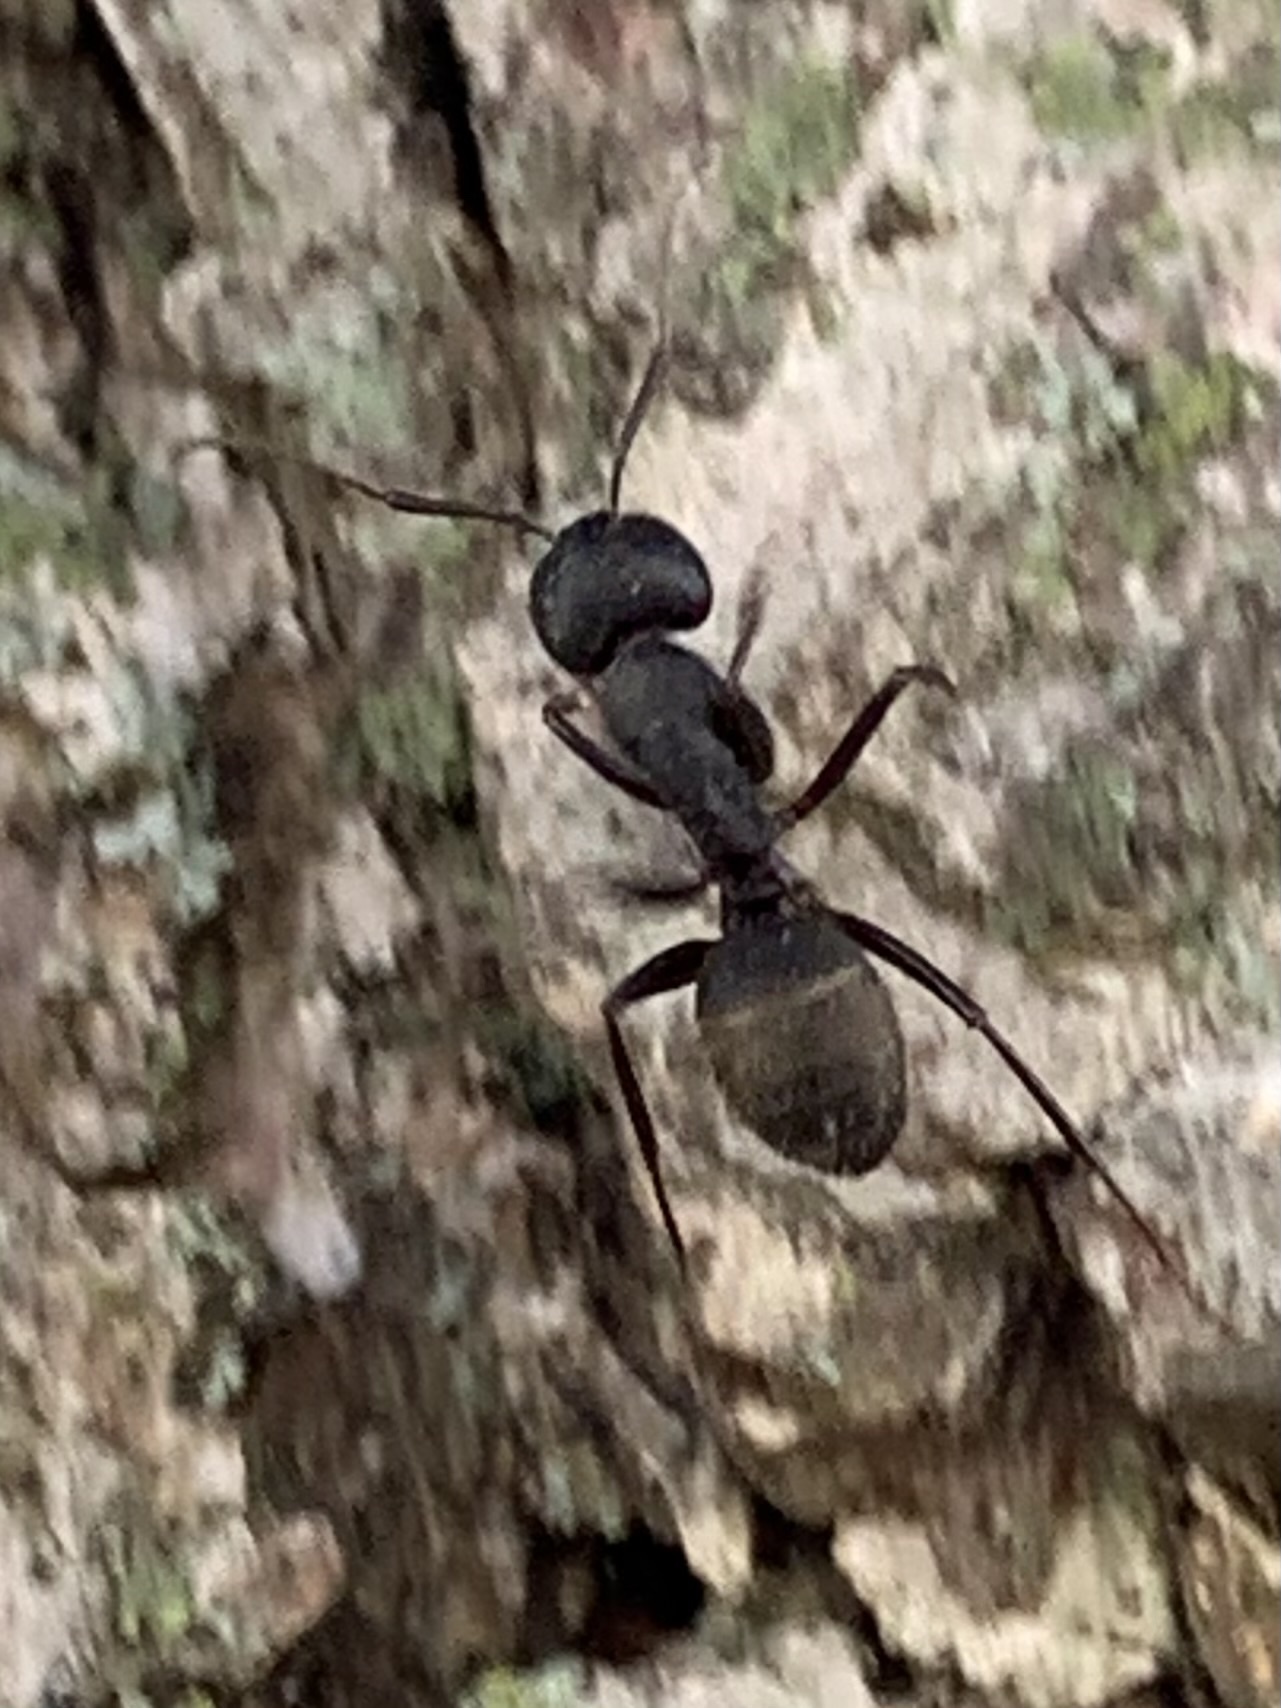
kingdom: Animalia
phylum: Arthropoda
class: Insecta
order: Hymenoptera
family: Formicidae
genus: Camponotus
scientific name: Camponotus pennsylvanicus
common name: Black carpenter ant
